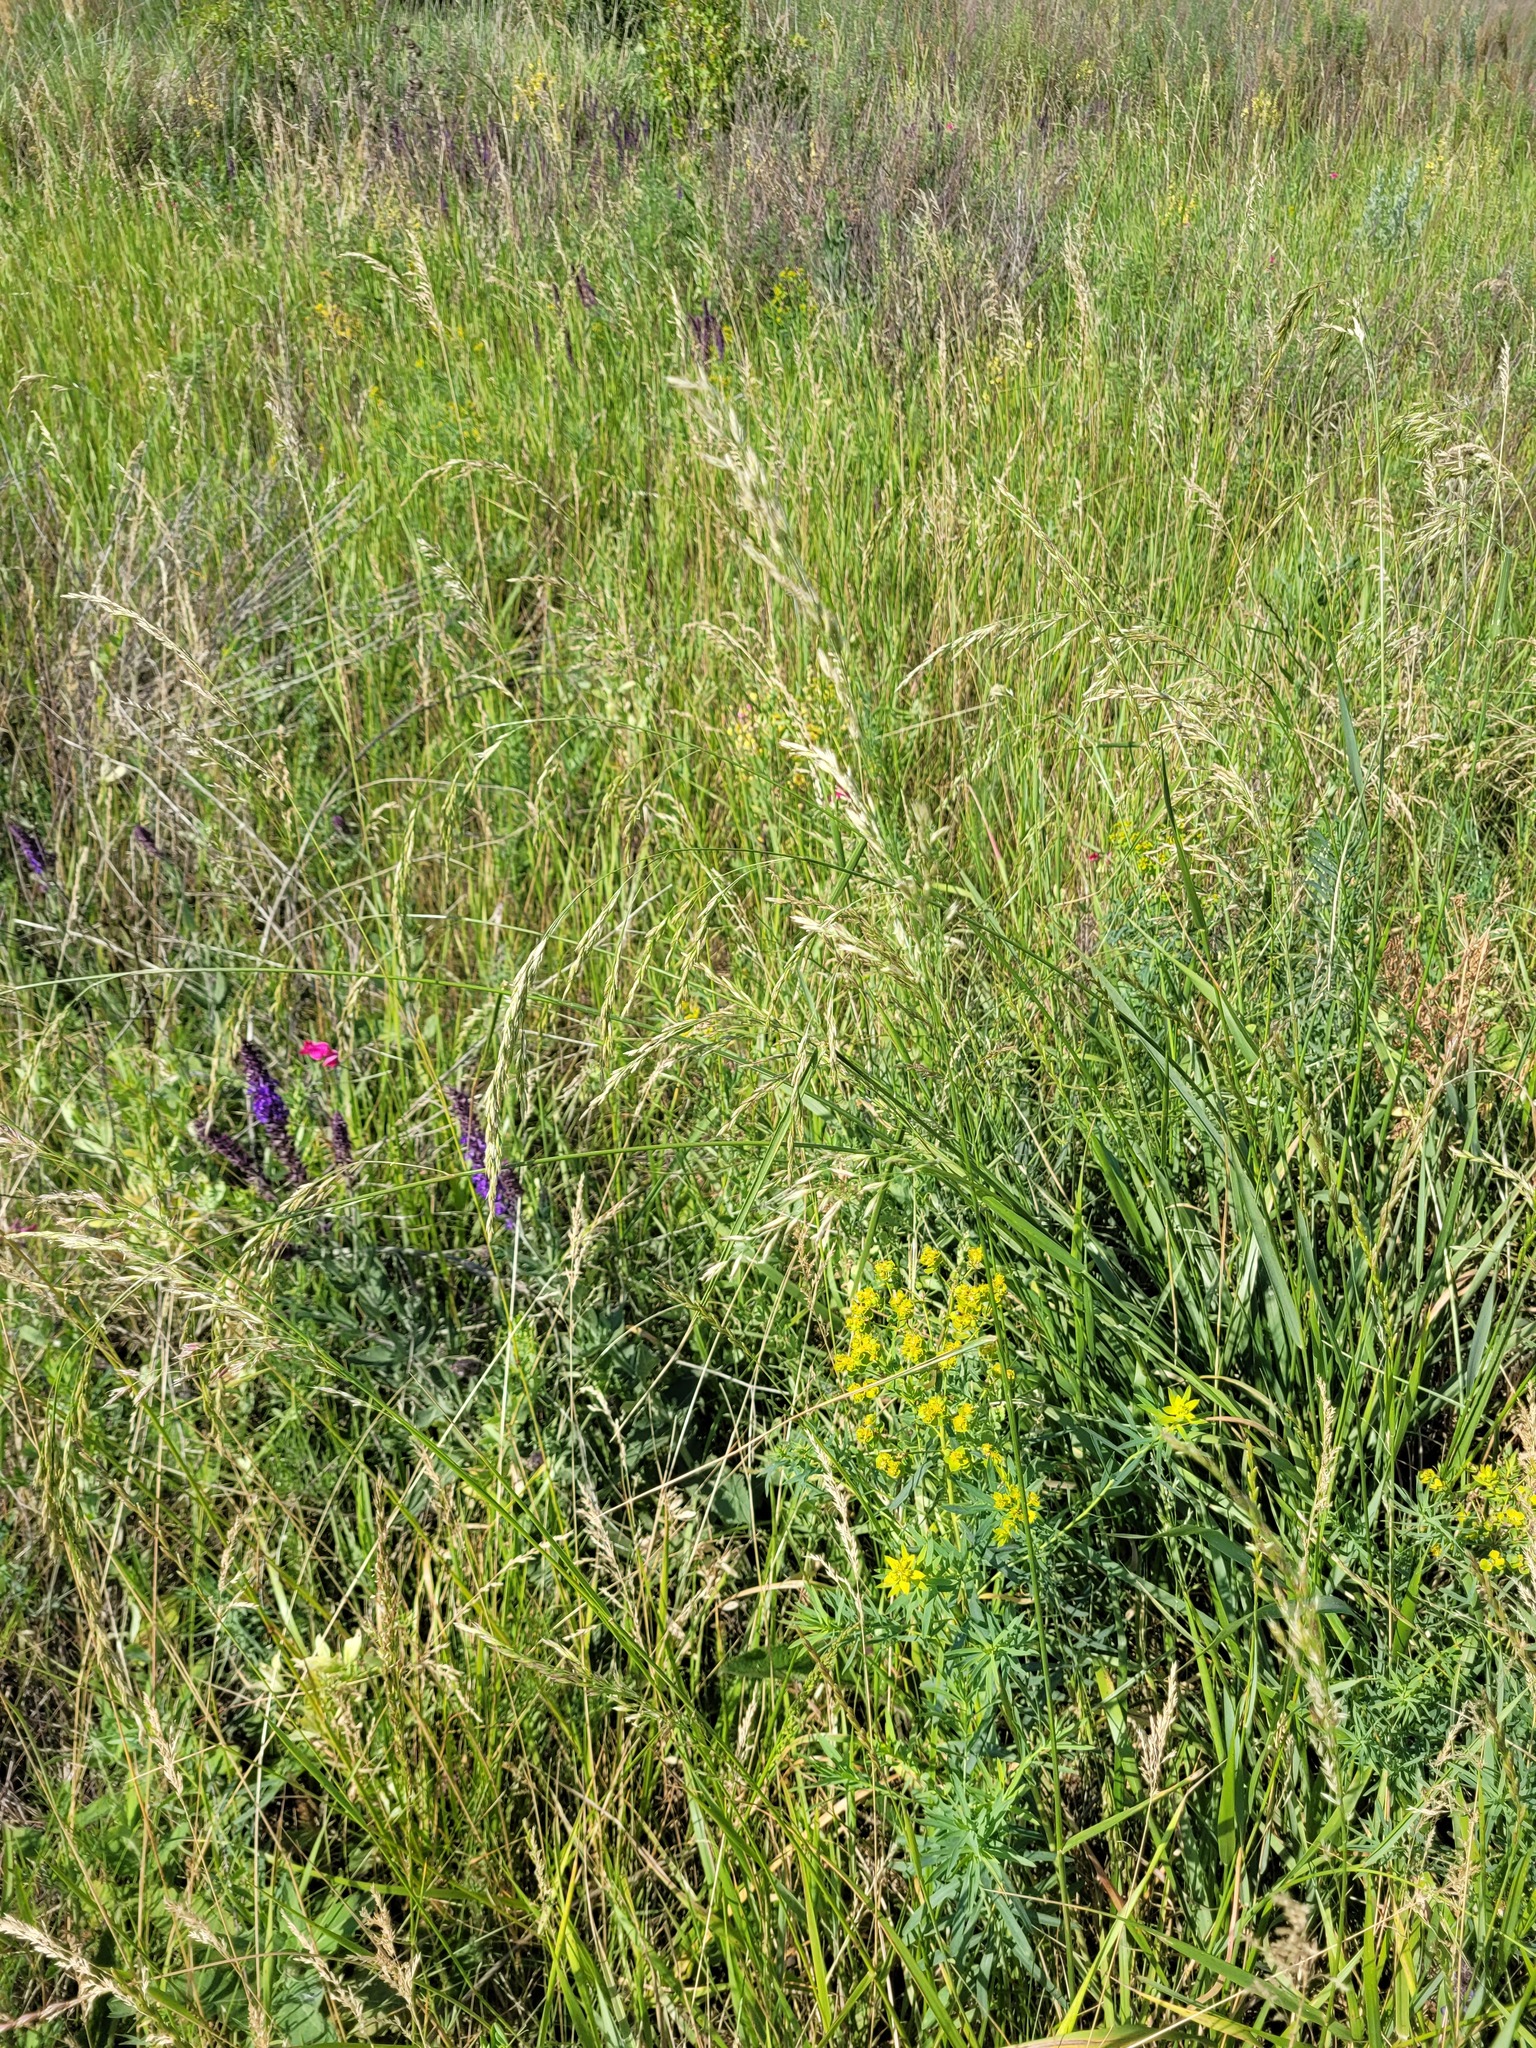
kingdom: Plantae
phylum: Tracheophyta
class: Liliopsida
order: Poales
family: Poaceae
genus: Lolium
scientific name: Lolium arundinaceum
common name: Reed fescue
